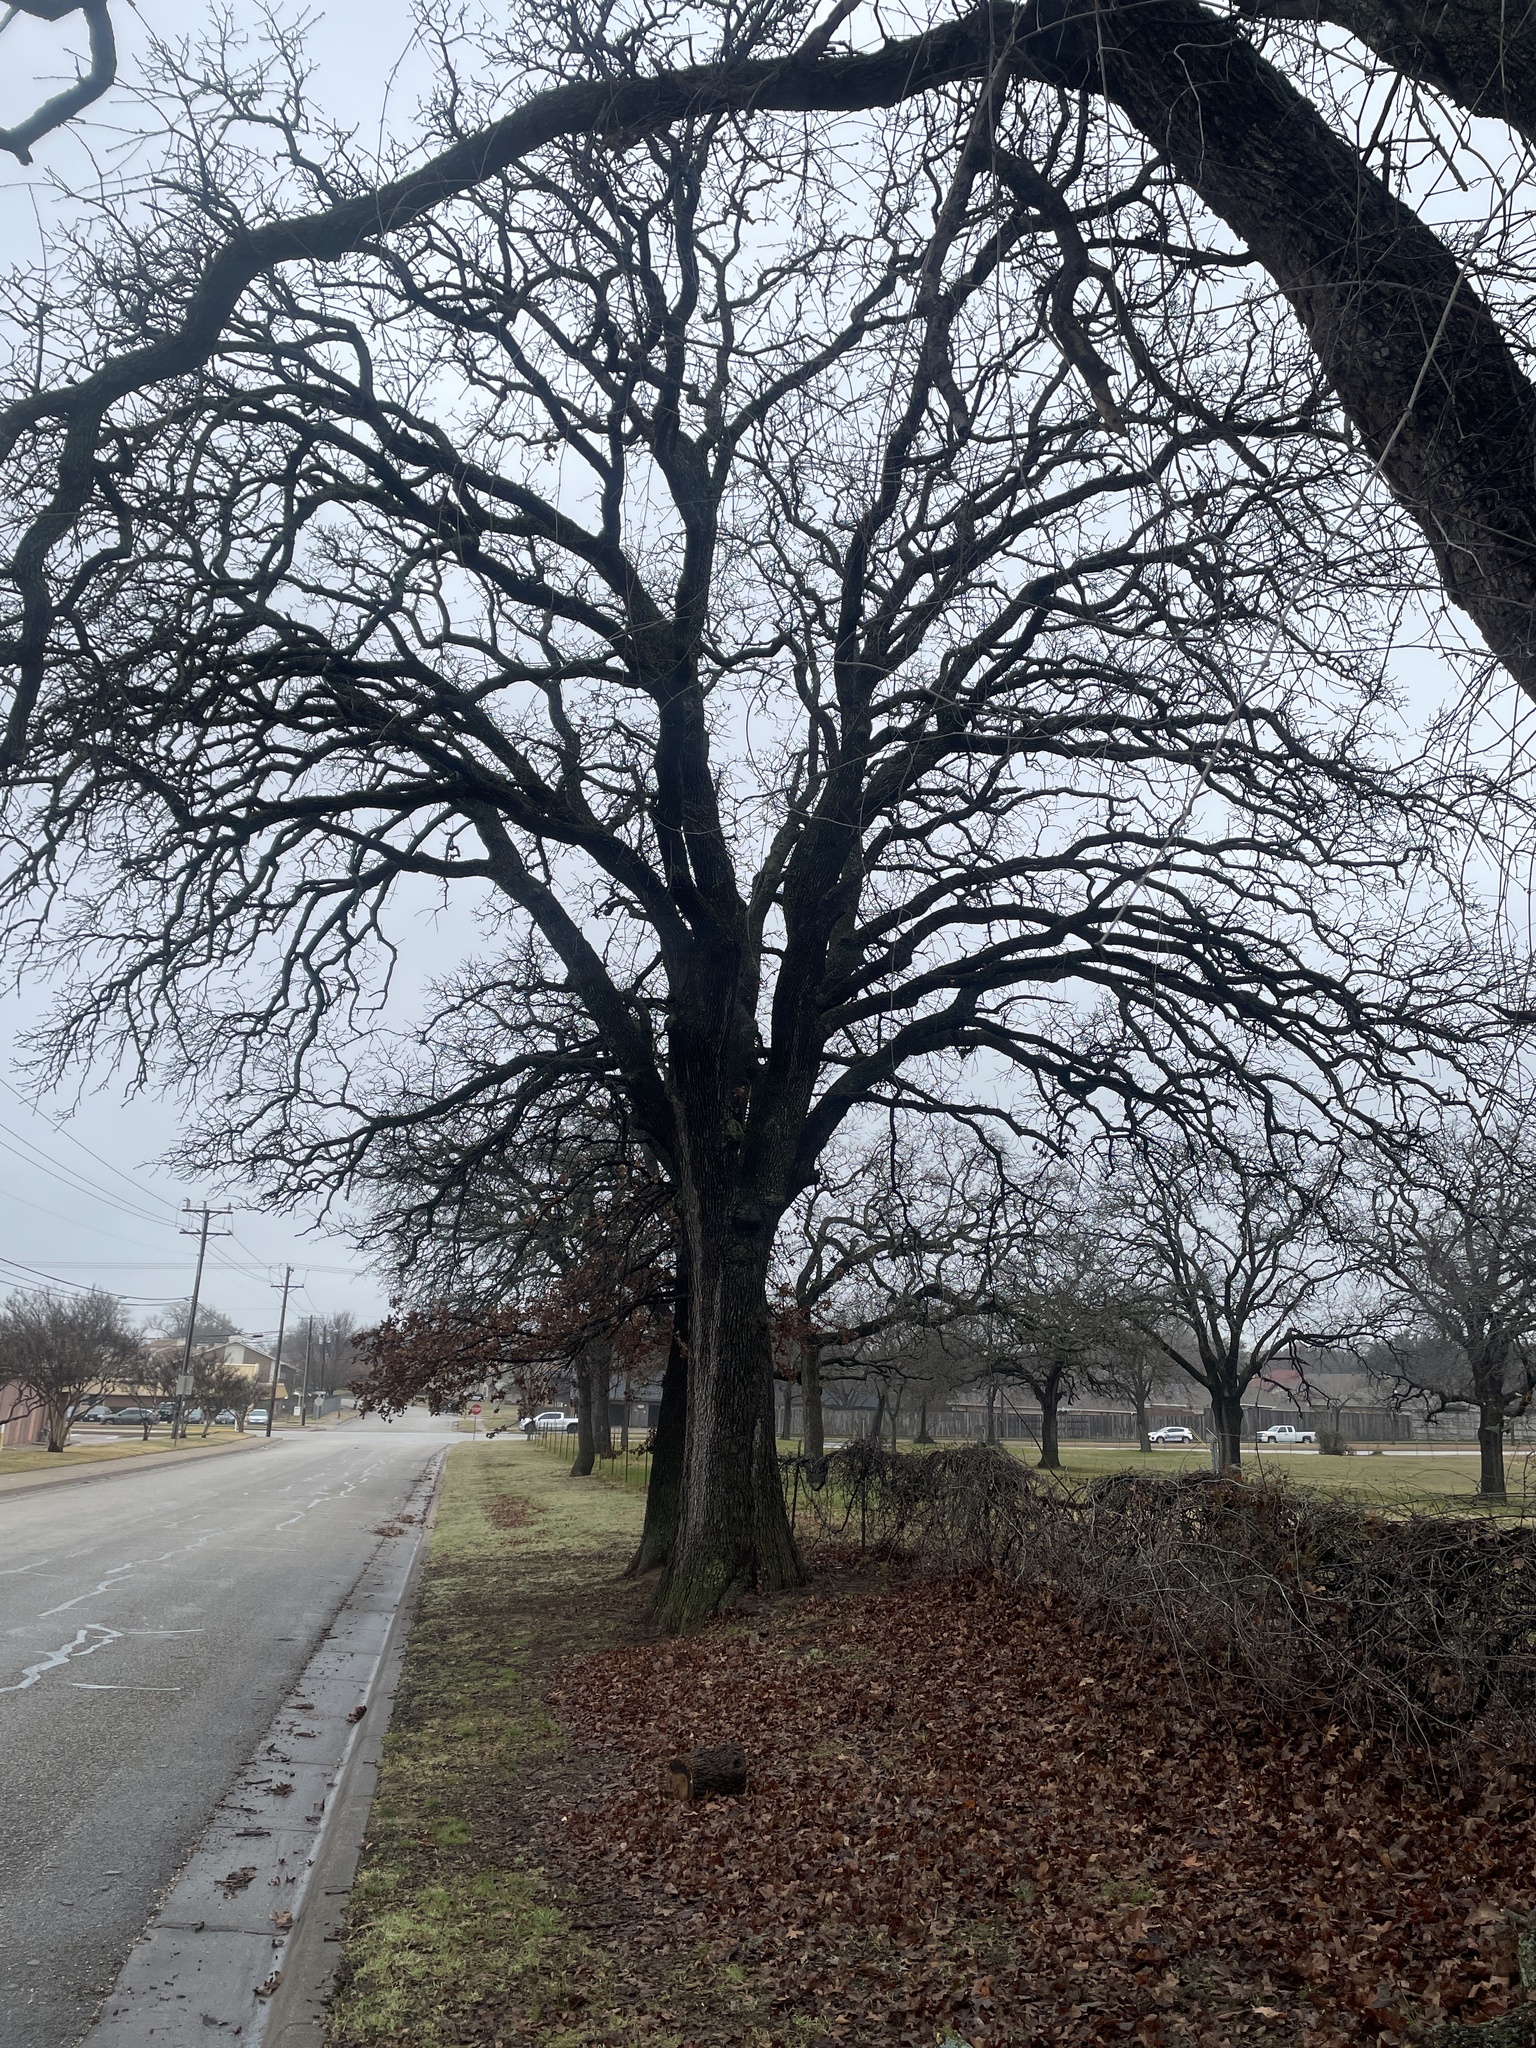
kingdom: Plantae
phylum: Tracheophyta
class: Magnoliopsida
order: Fagales
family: Fagaceae
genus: Quercus
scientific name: Quercus stellata
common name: Post oak
